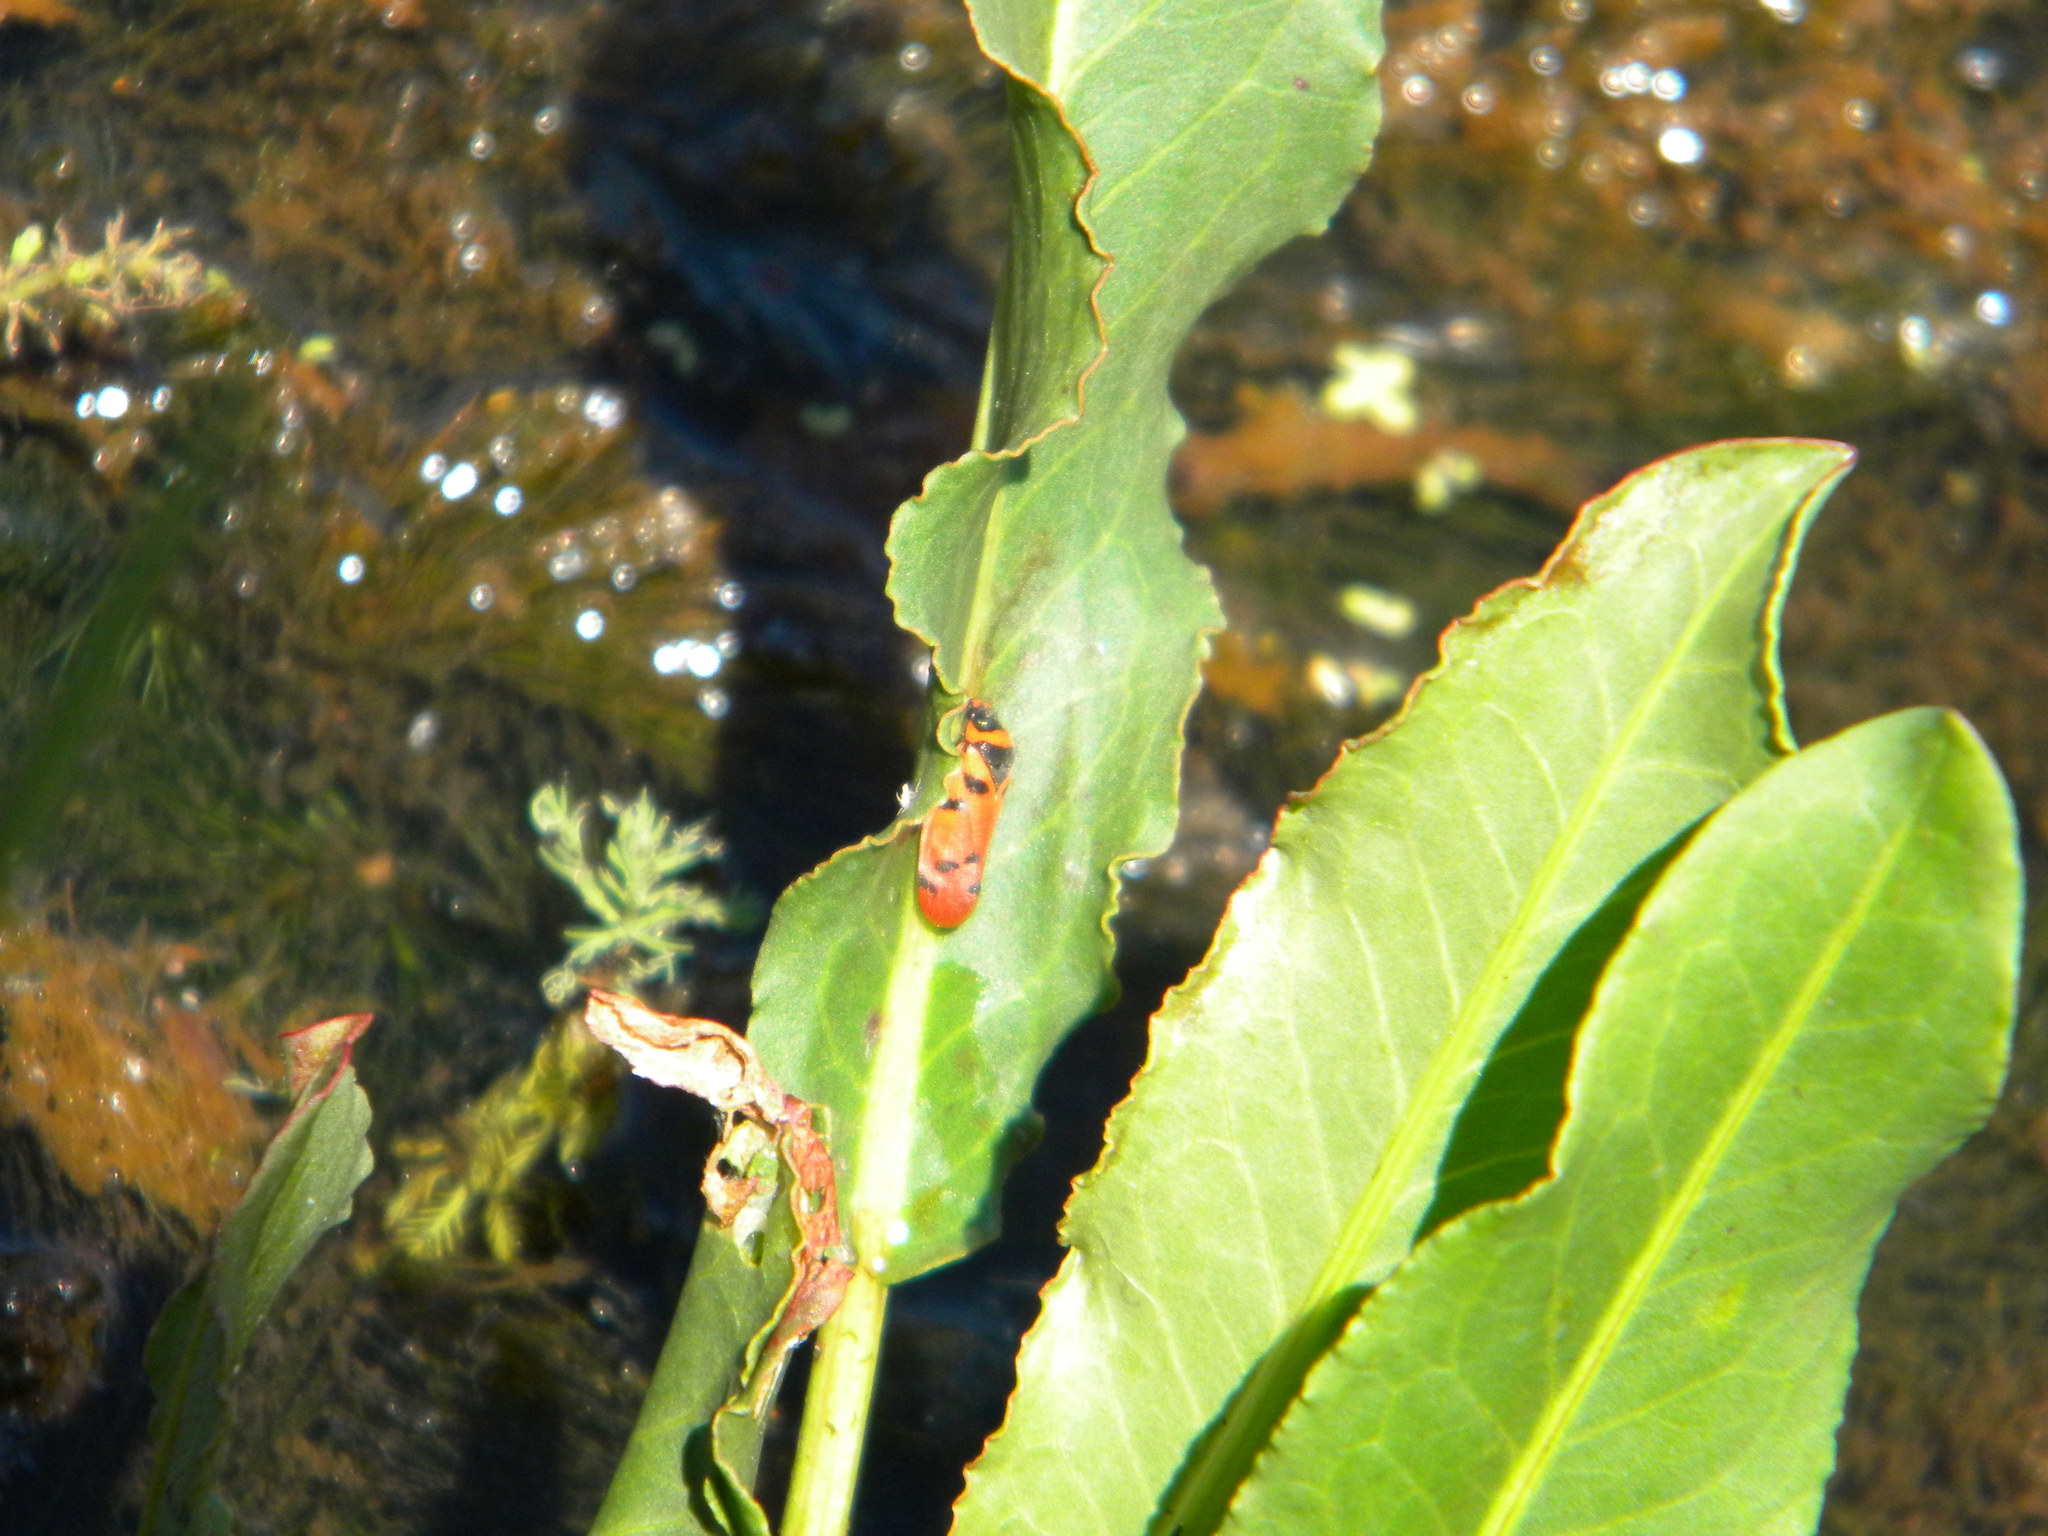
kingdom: Animalia
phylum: Arthropoda
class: Insecta
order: Hemiptera
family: Cercopidae
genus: Locris
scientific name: Locris arithmetica
